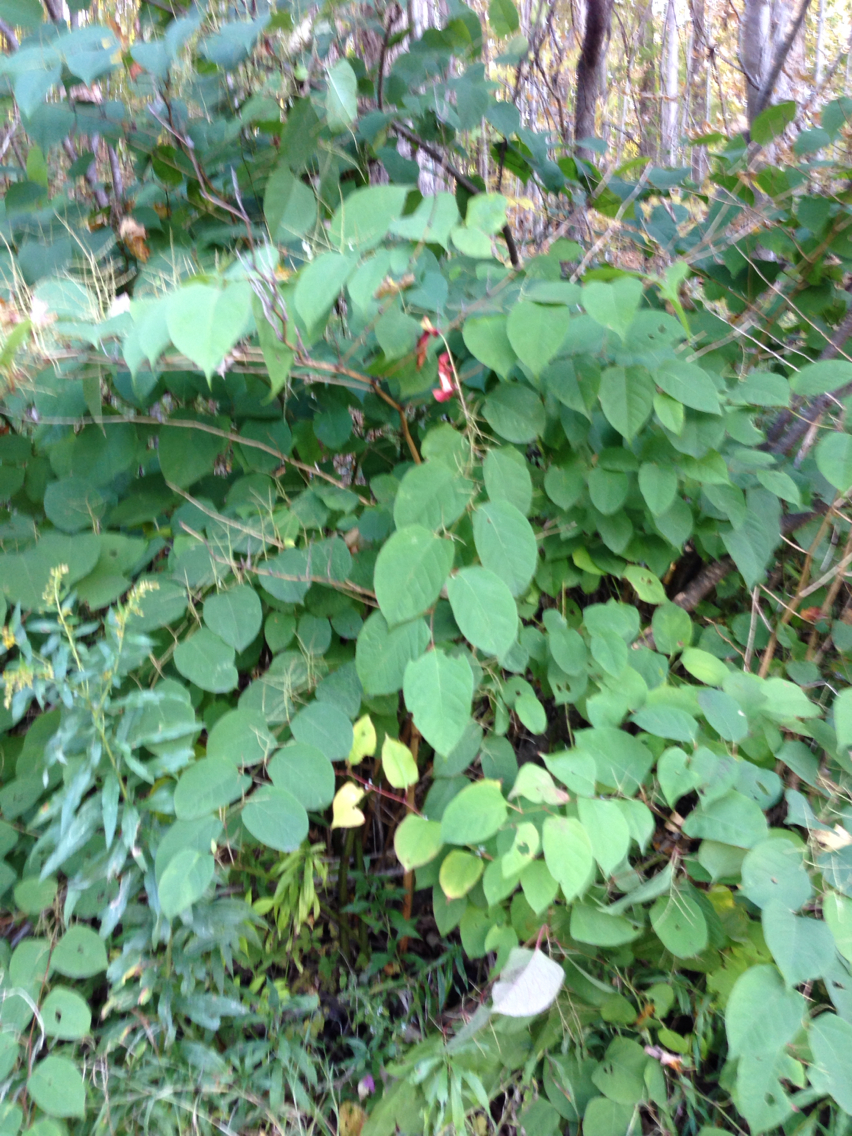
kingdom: Plantae
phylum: Tracheophyta
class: Magnoliopsida
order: Caryophyllales
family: Polygonaceae
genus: Reynoutria
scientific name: Reynoutria japonica
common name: Japanese knotweed
